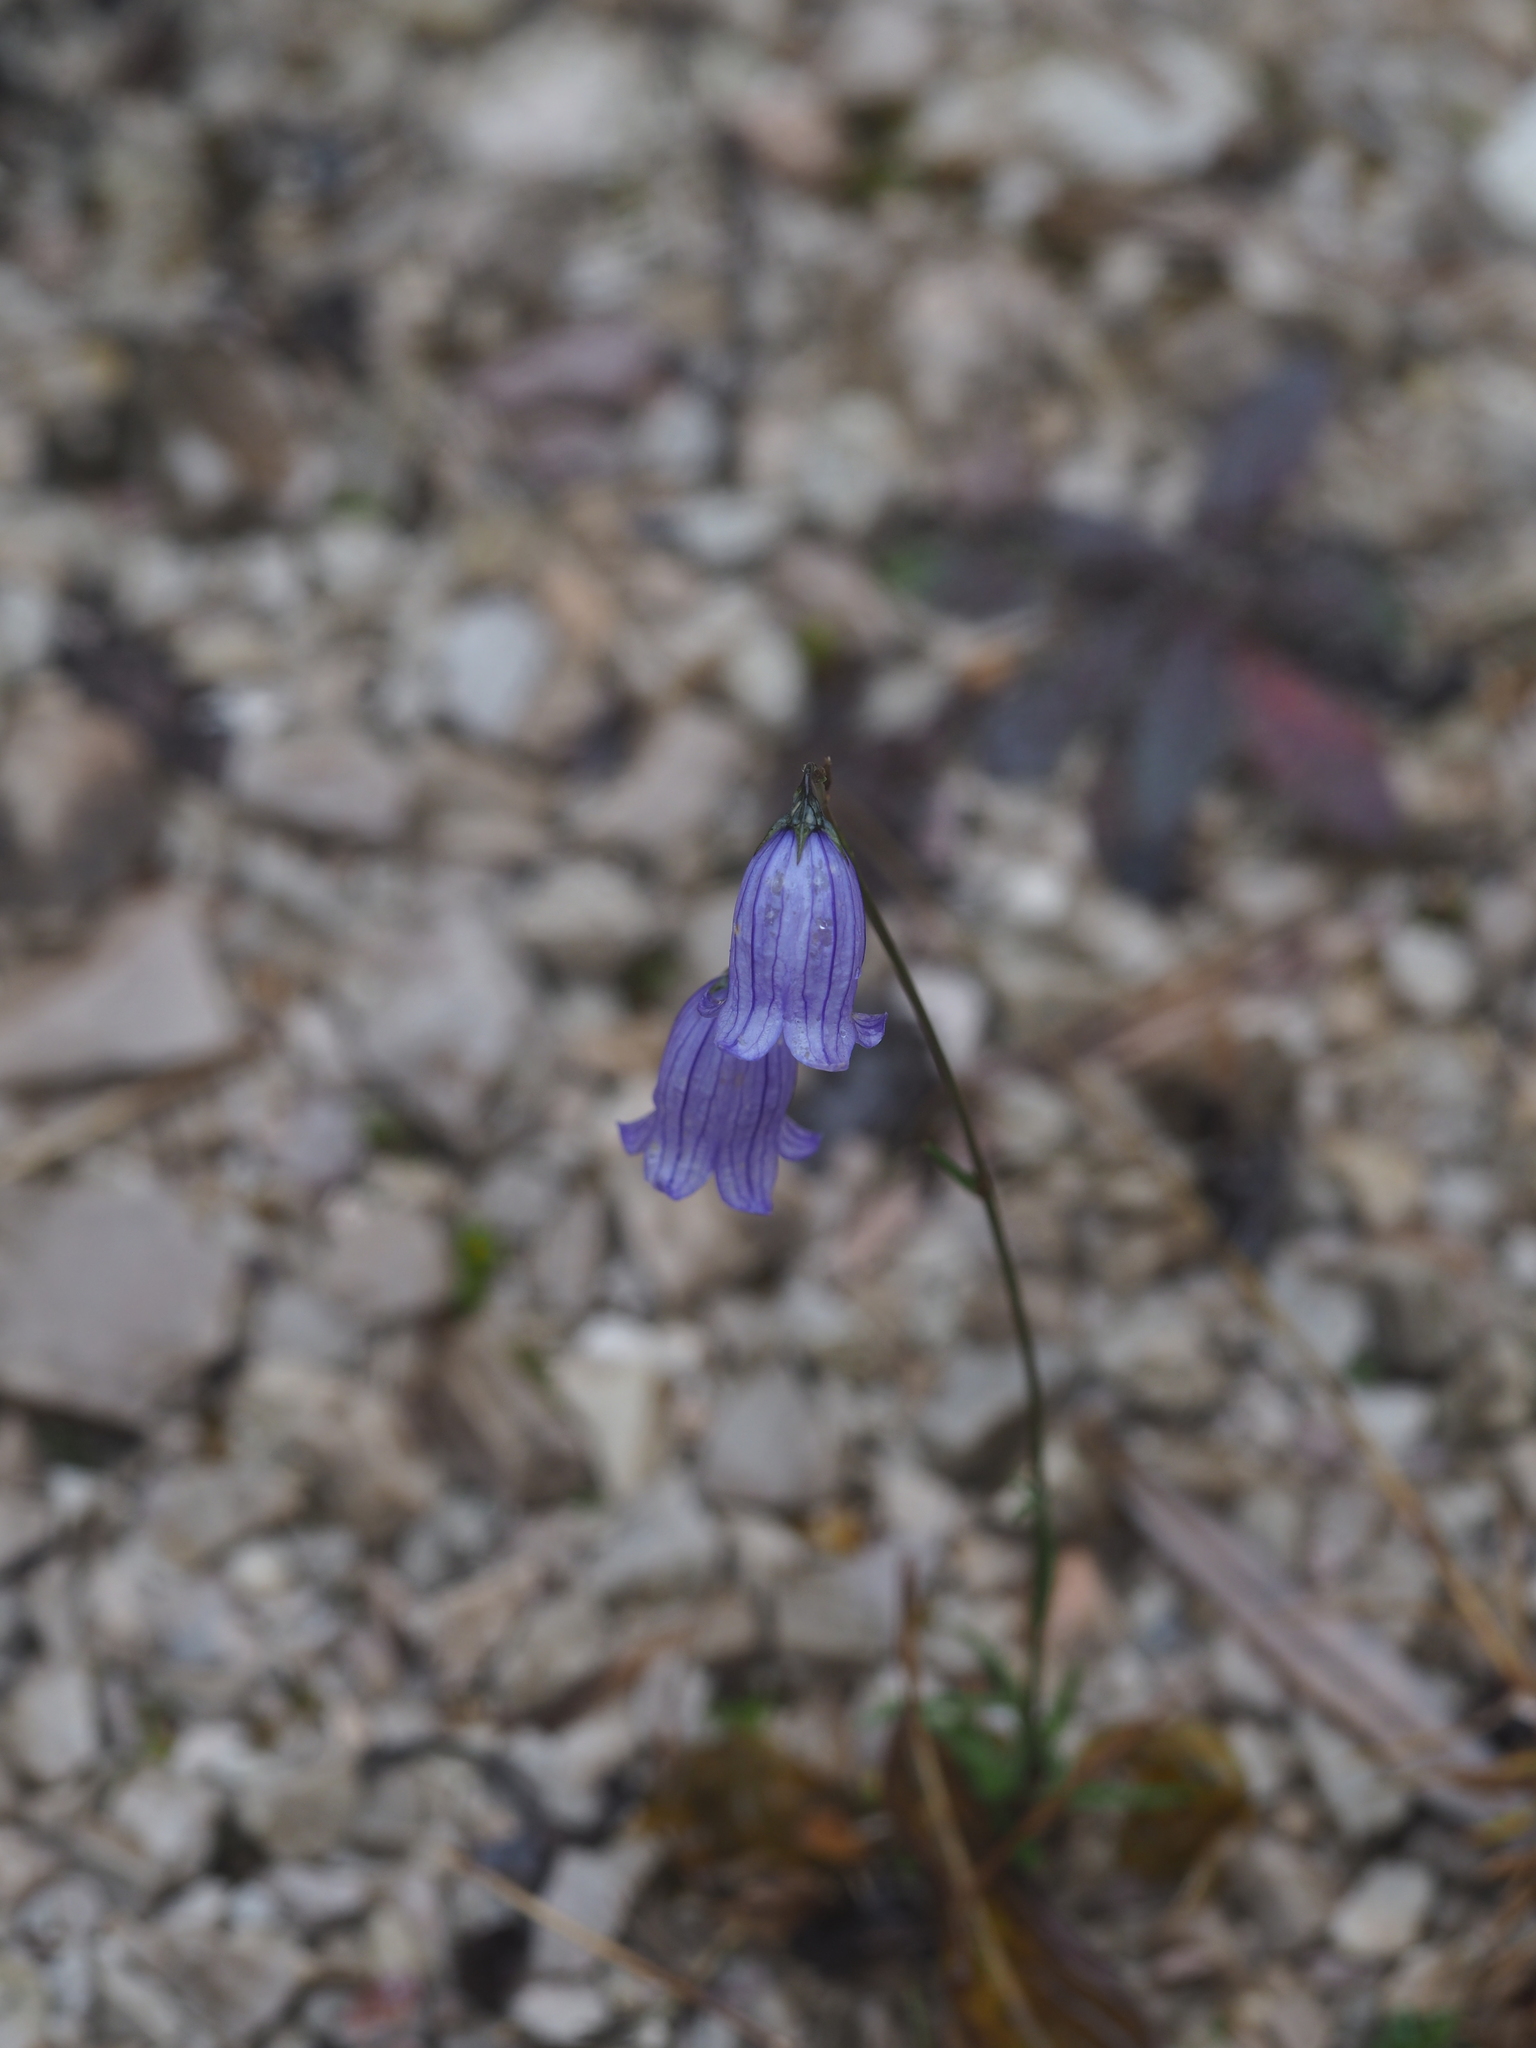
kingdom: Plantae
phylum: Tracheophyta
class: Magnoliopsida
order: Asterales
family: Campanulaceae
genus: Campanula
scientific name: Campanula cespitosa
